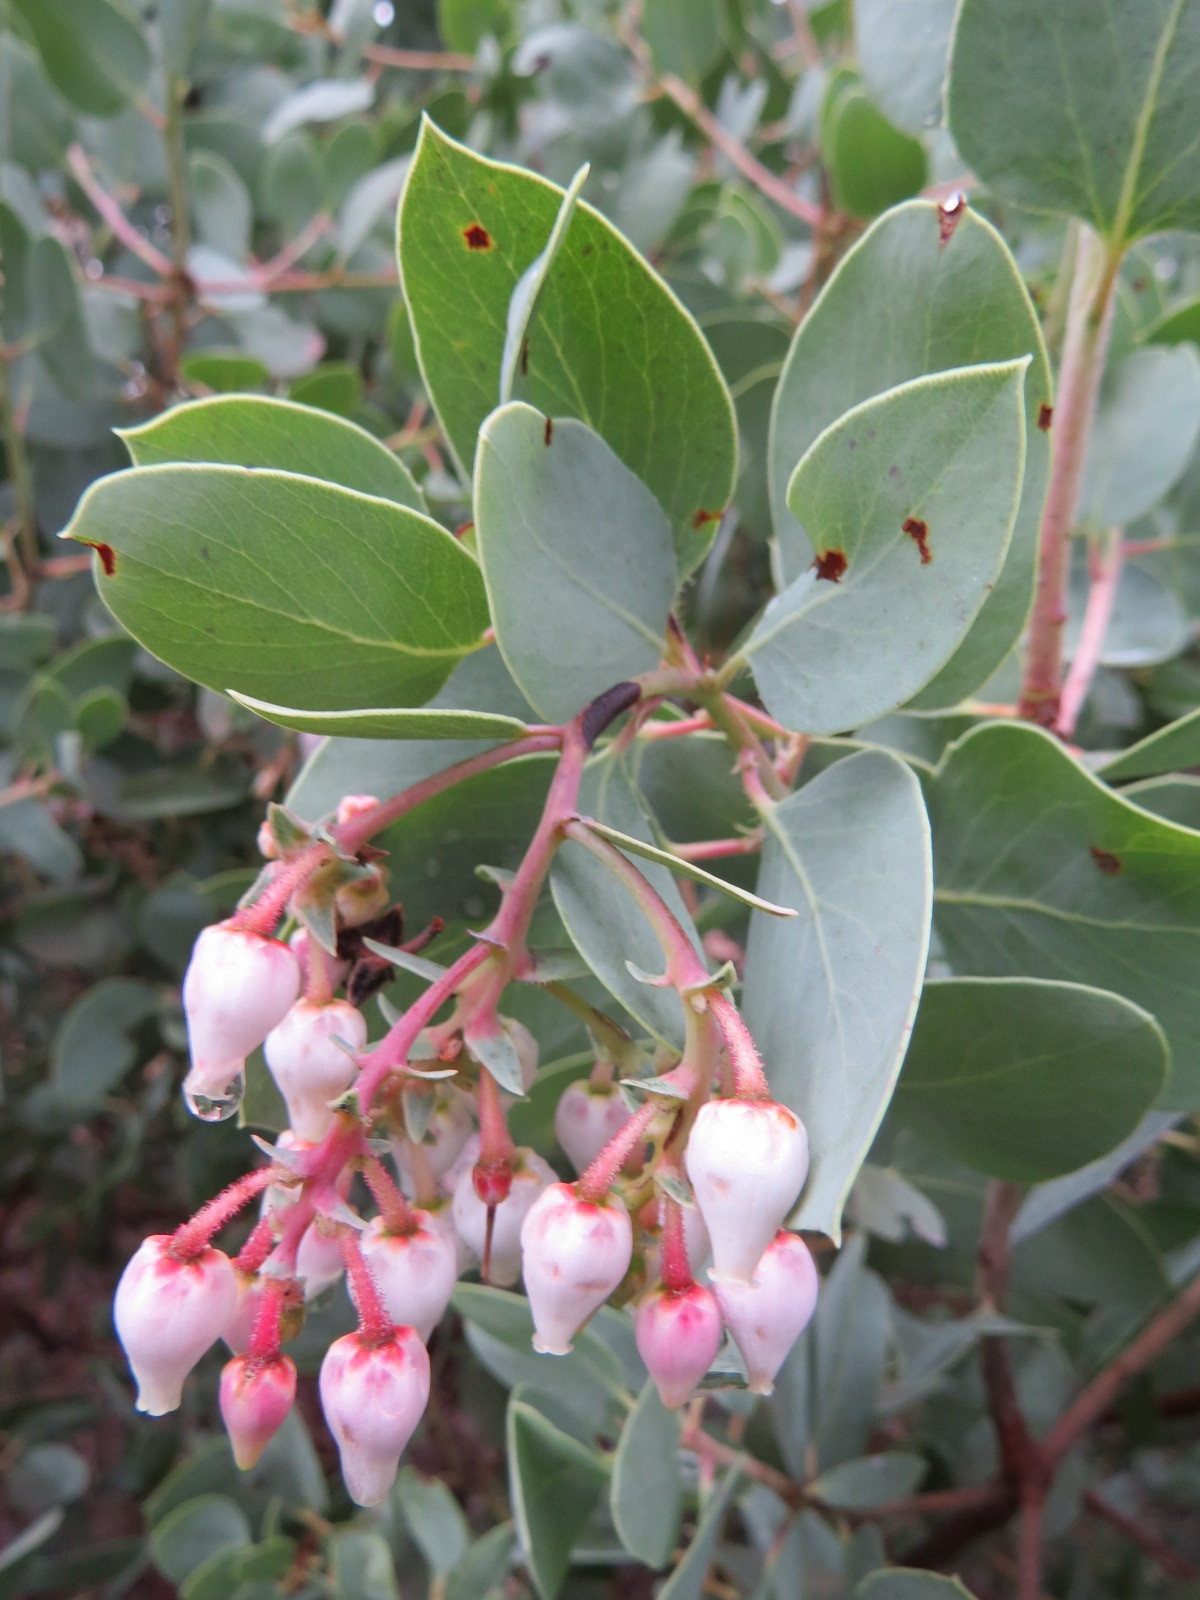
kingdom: Plantae
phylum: Tracheophyta
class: Magnoliopsida
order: Ericales
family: Ericaceae
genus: Arctostaphylos
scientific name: Arctostaphylos glauca
